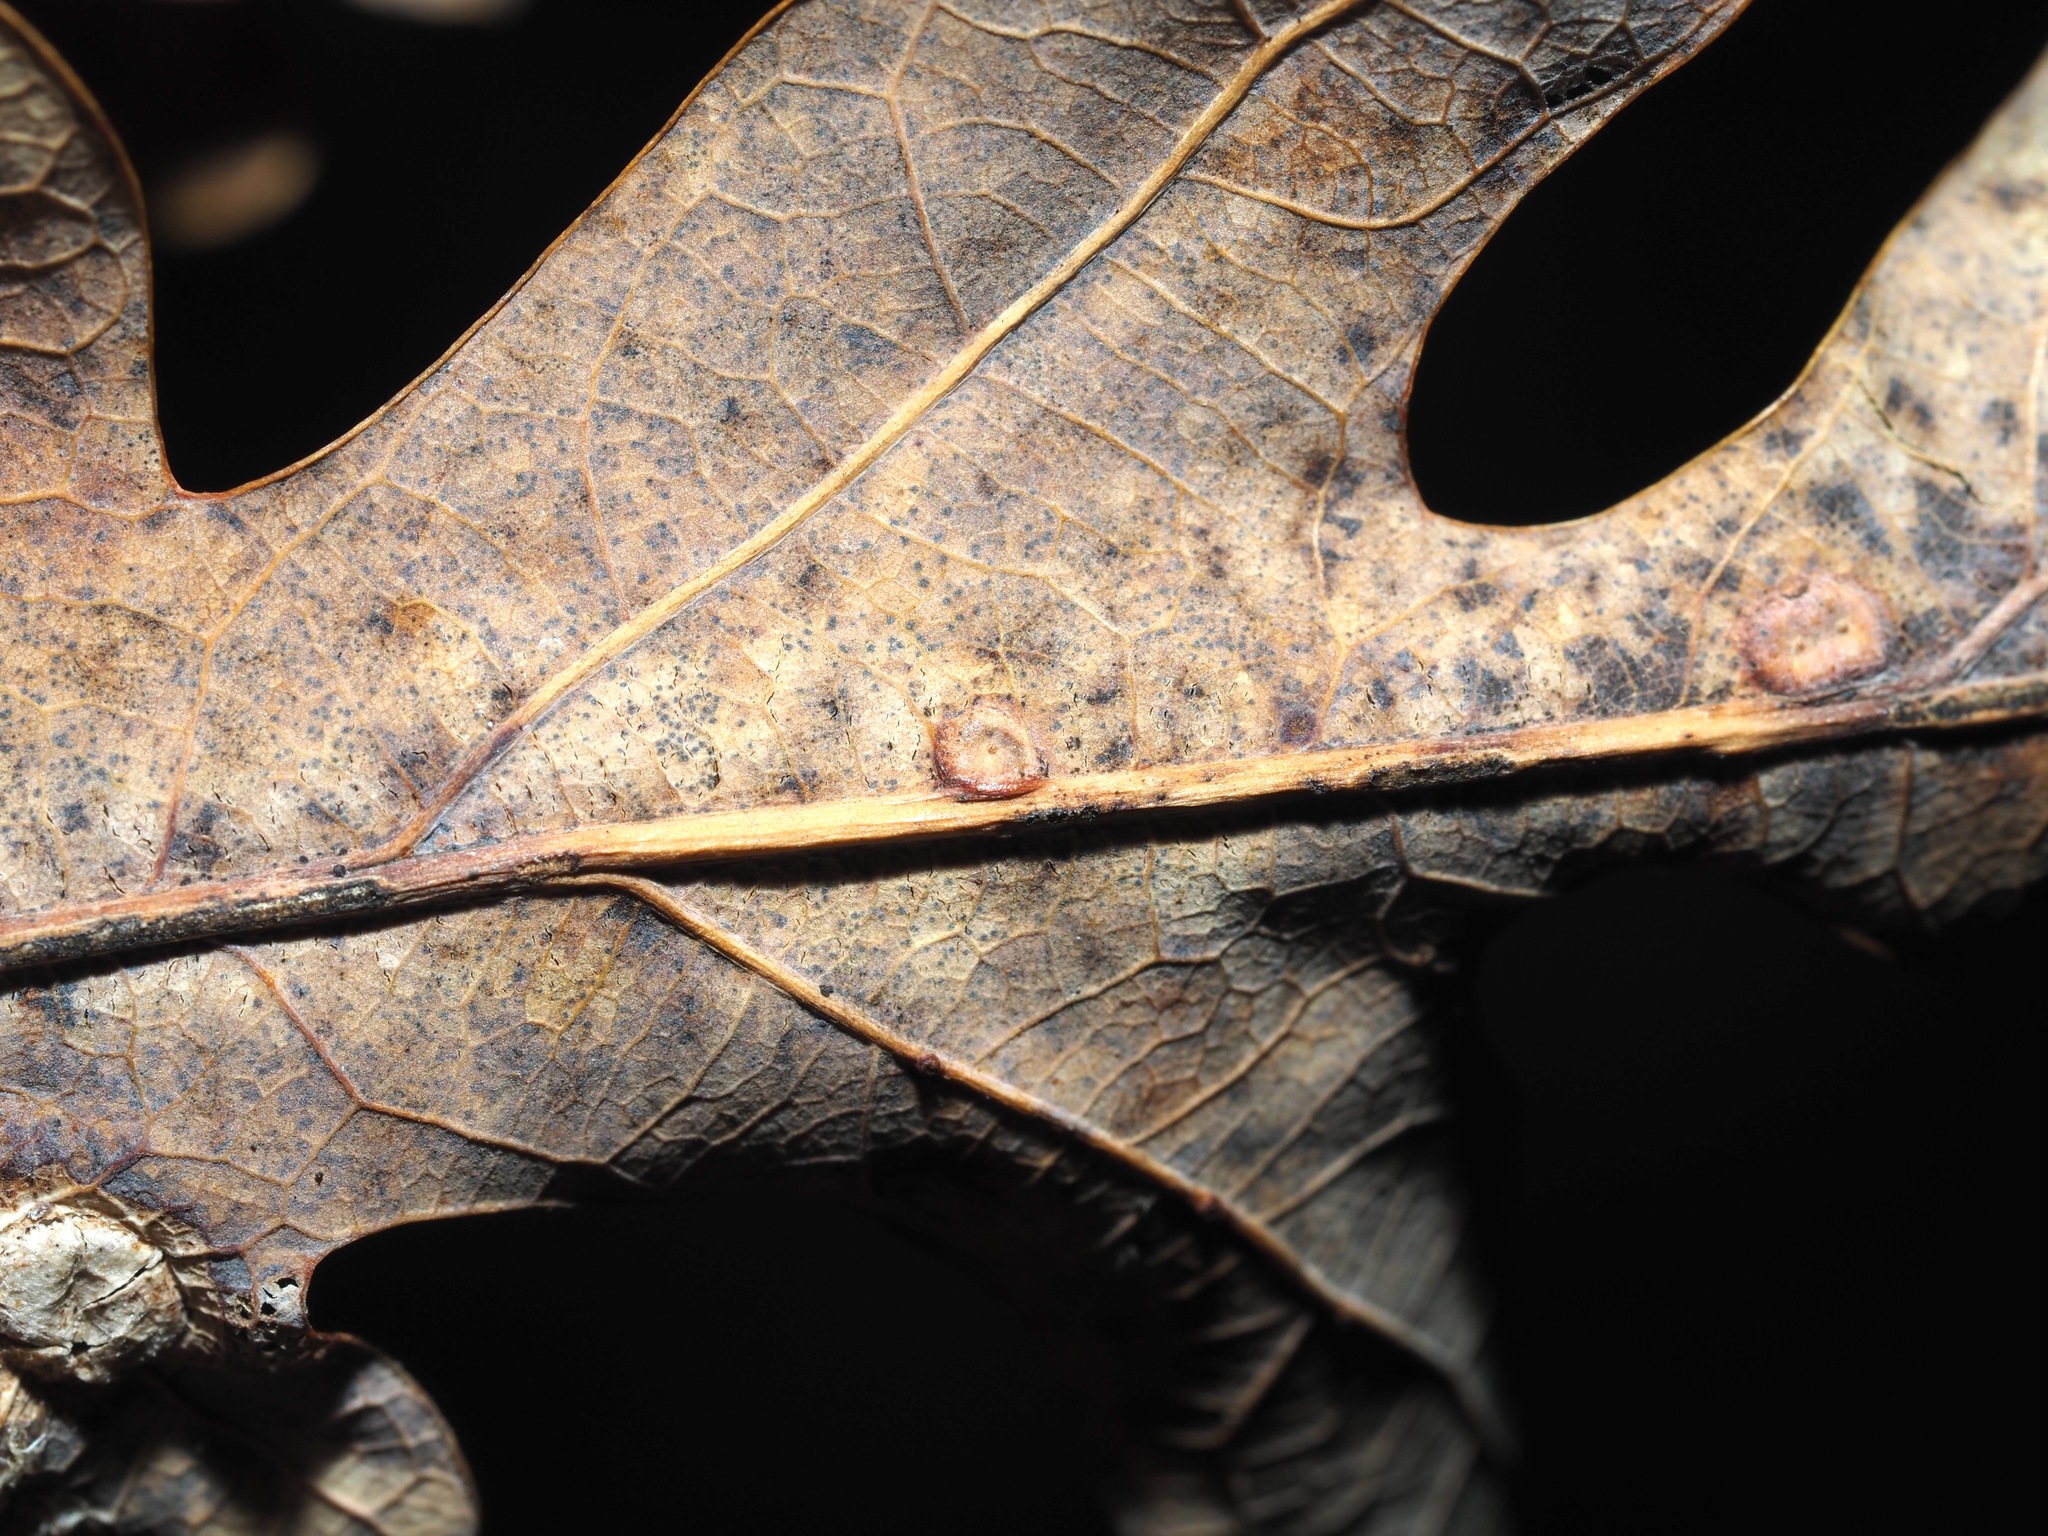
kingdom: Animalia
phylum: Arthropoda
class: Insecta
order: Hymenoptera
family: Cynipidae
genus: Neuroterus
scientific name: Neuroterus niger
